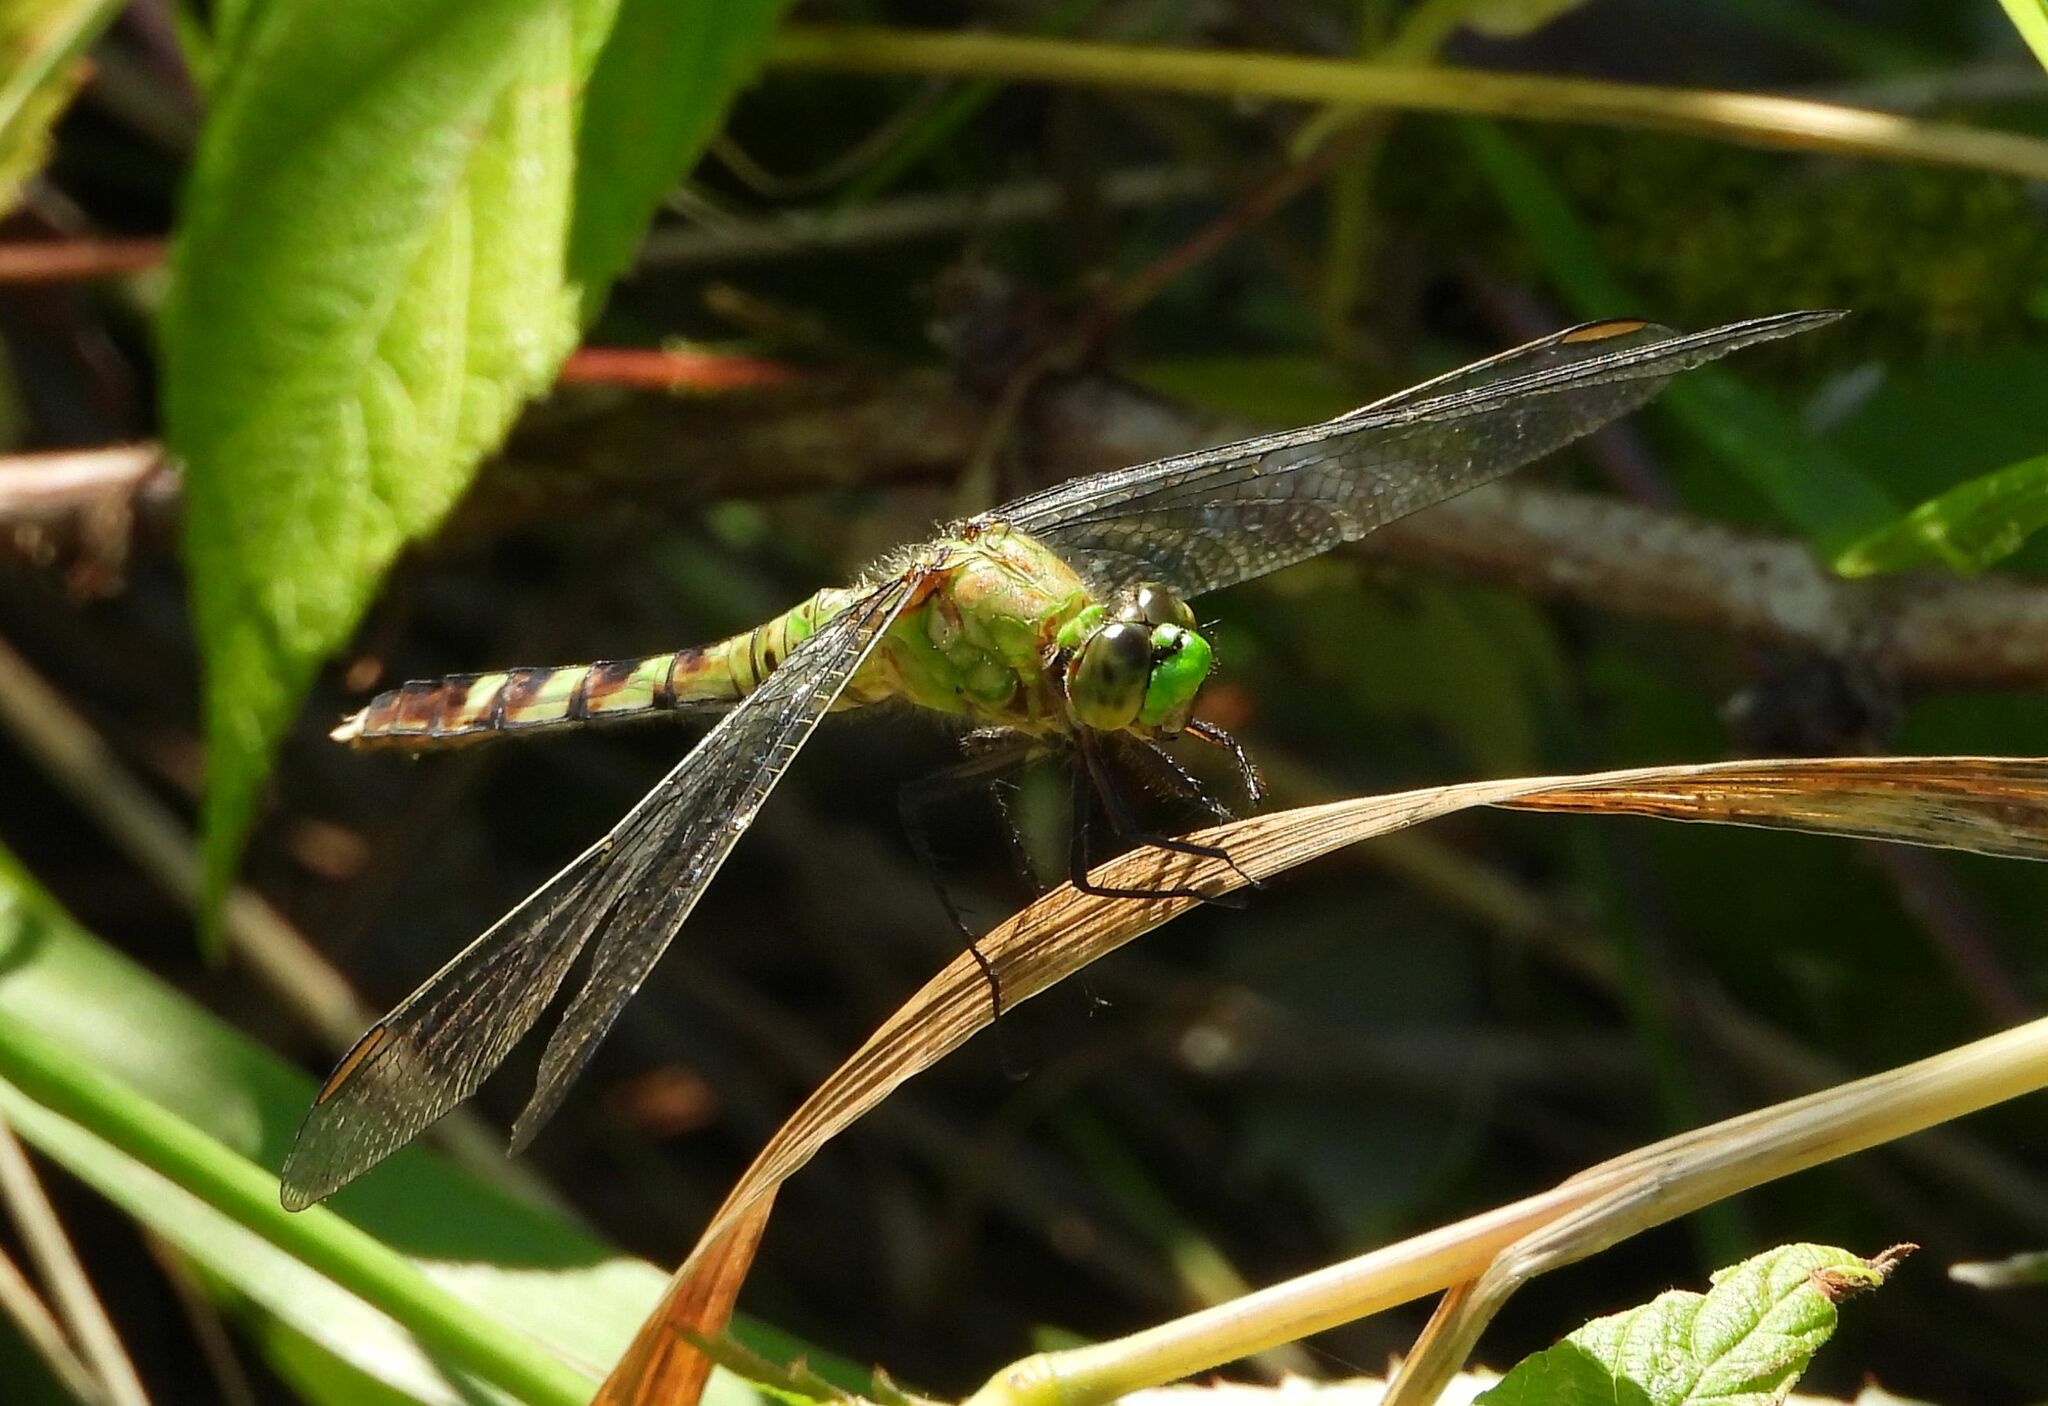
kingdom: Animalia
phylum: Arthropoda
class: Insecta
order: Odonata
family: Libellulidae
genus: Erythemis
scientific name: Erythemis simplicicollis
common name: Eastern pondhawk
